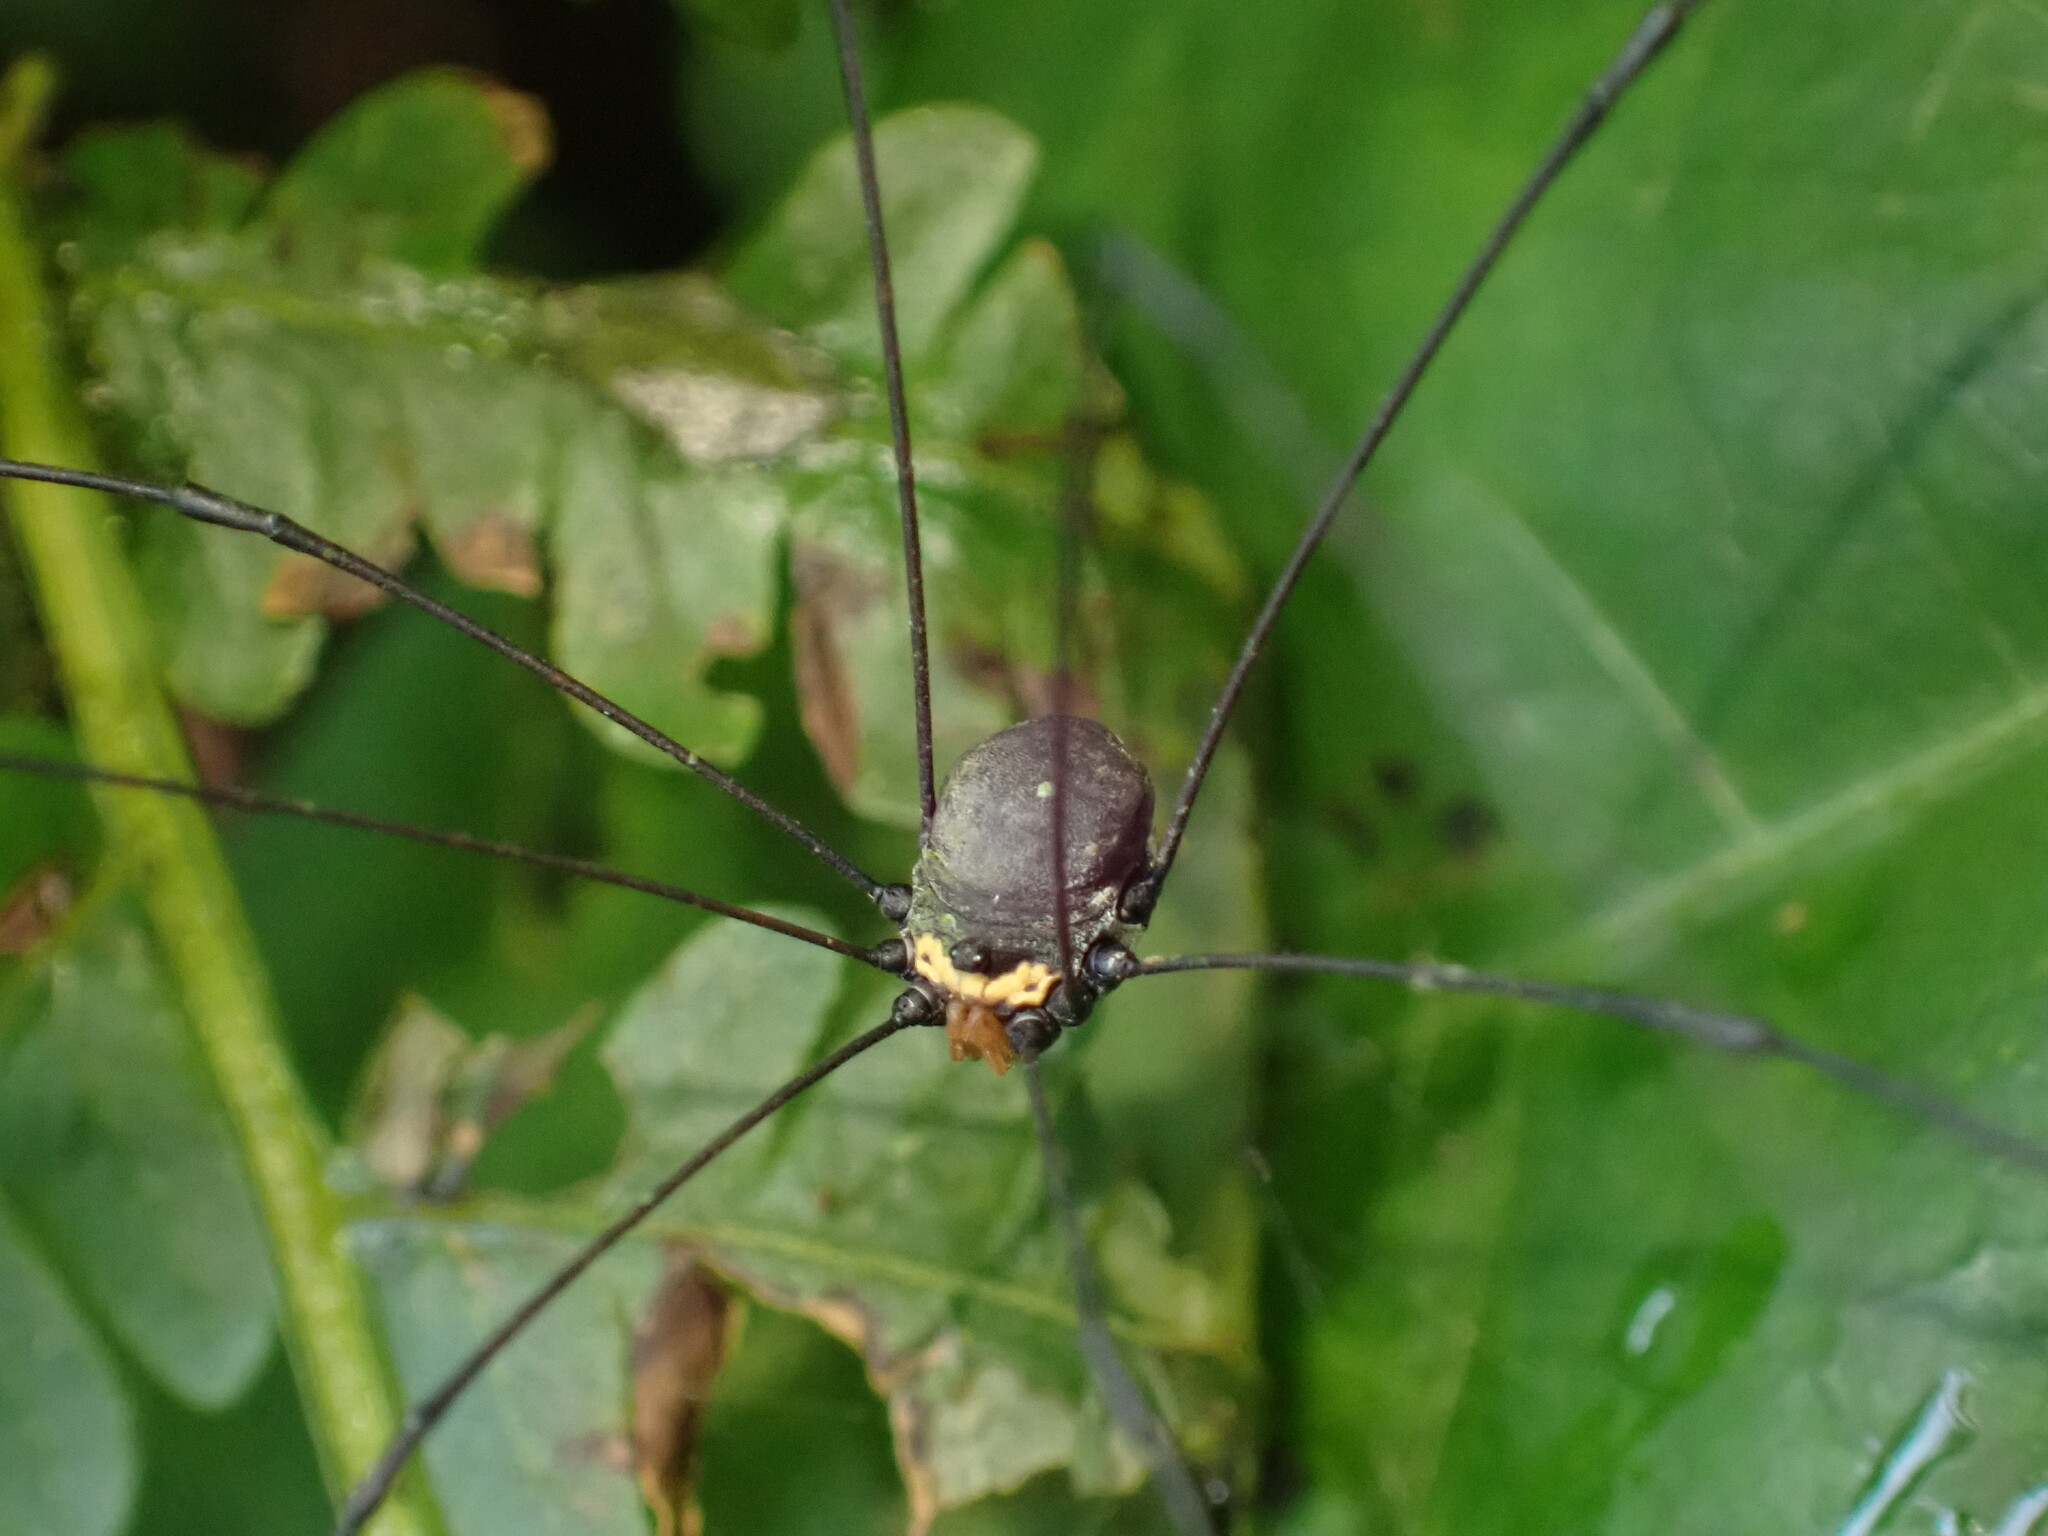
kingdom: Animalia
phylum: Arthropoda
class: Arachnida
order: Opiliones
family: Sclerosomatidae
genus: Jussara
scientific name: Jussara albiarcuata
